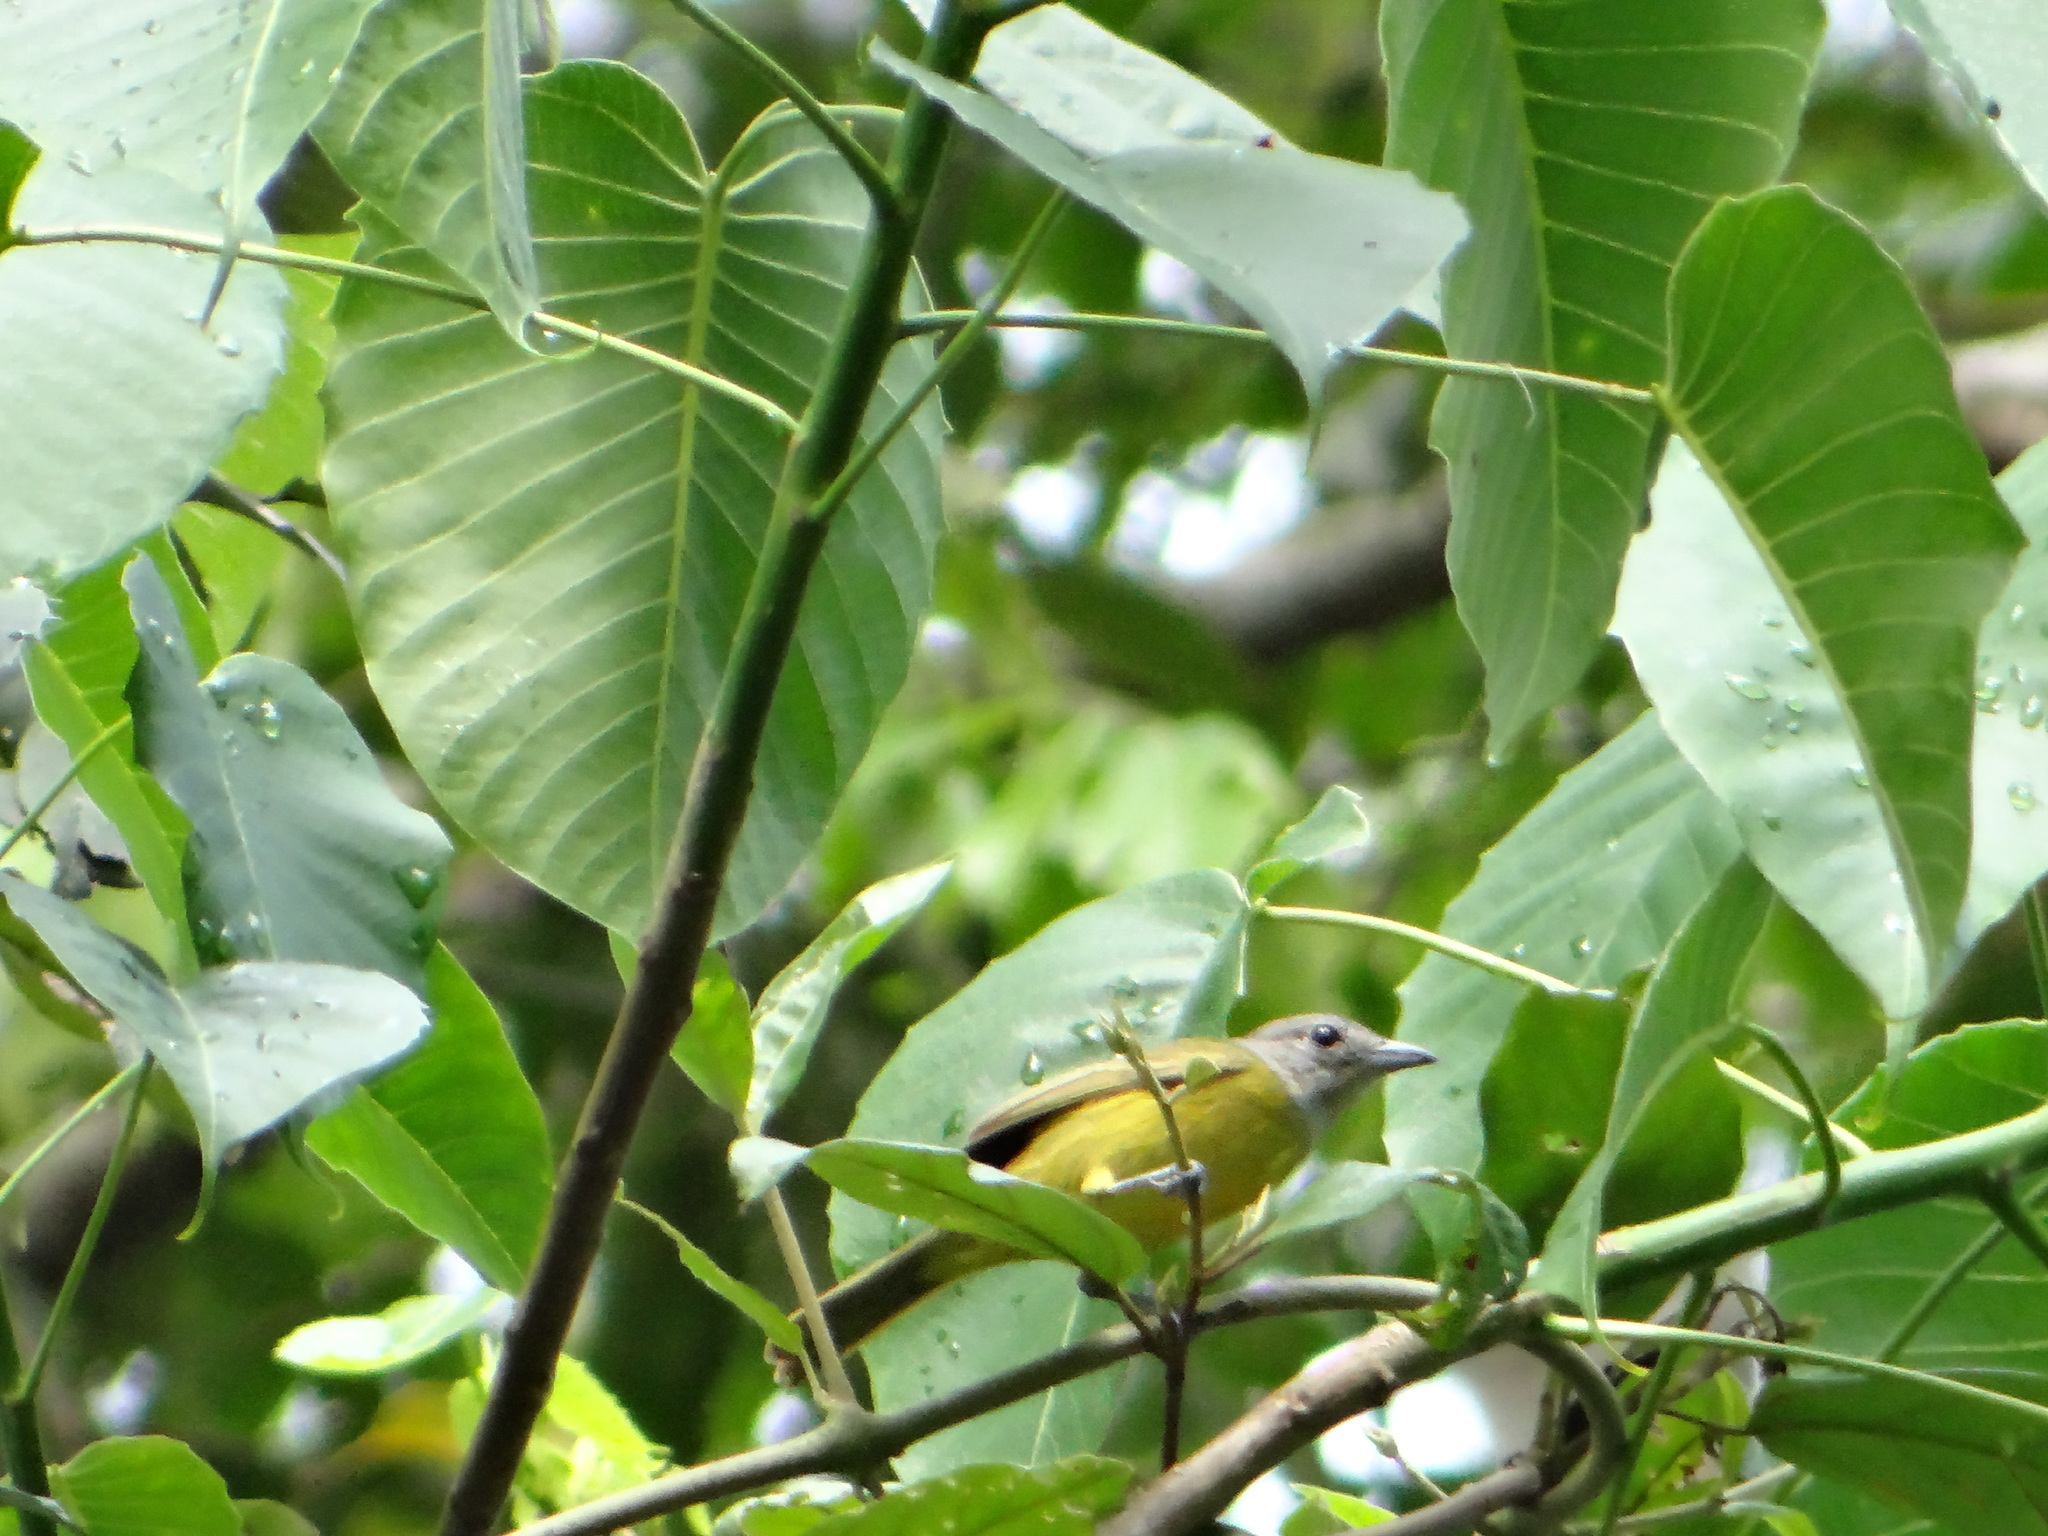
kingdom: Animalia
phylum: Chordata
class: Aves
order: Passeriformes
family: Thraupidae
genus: Loriotus
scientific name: Loriotus luctuosus
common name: White-shouldered tanager
